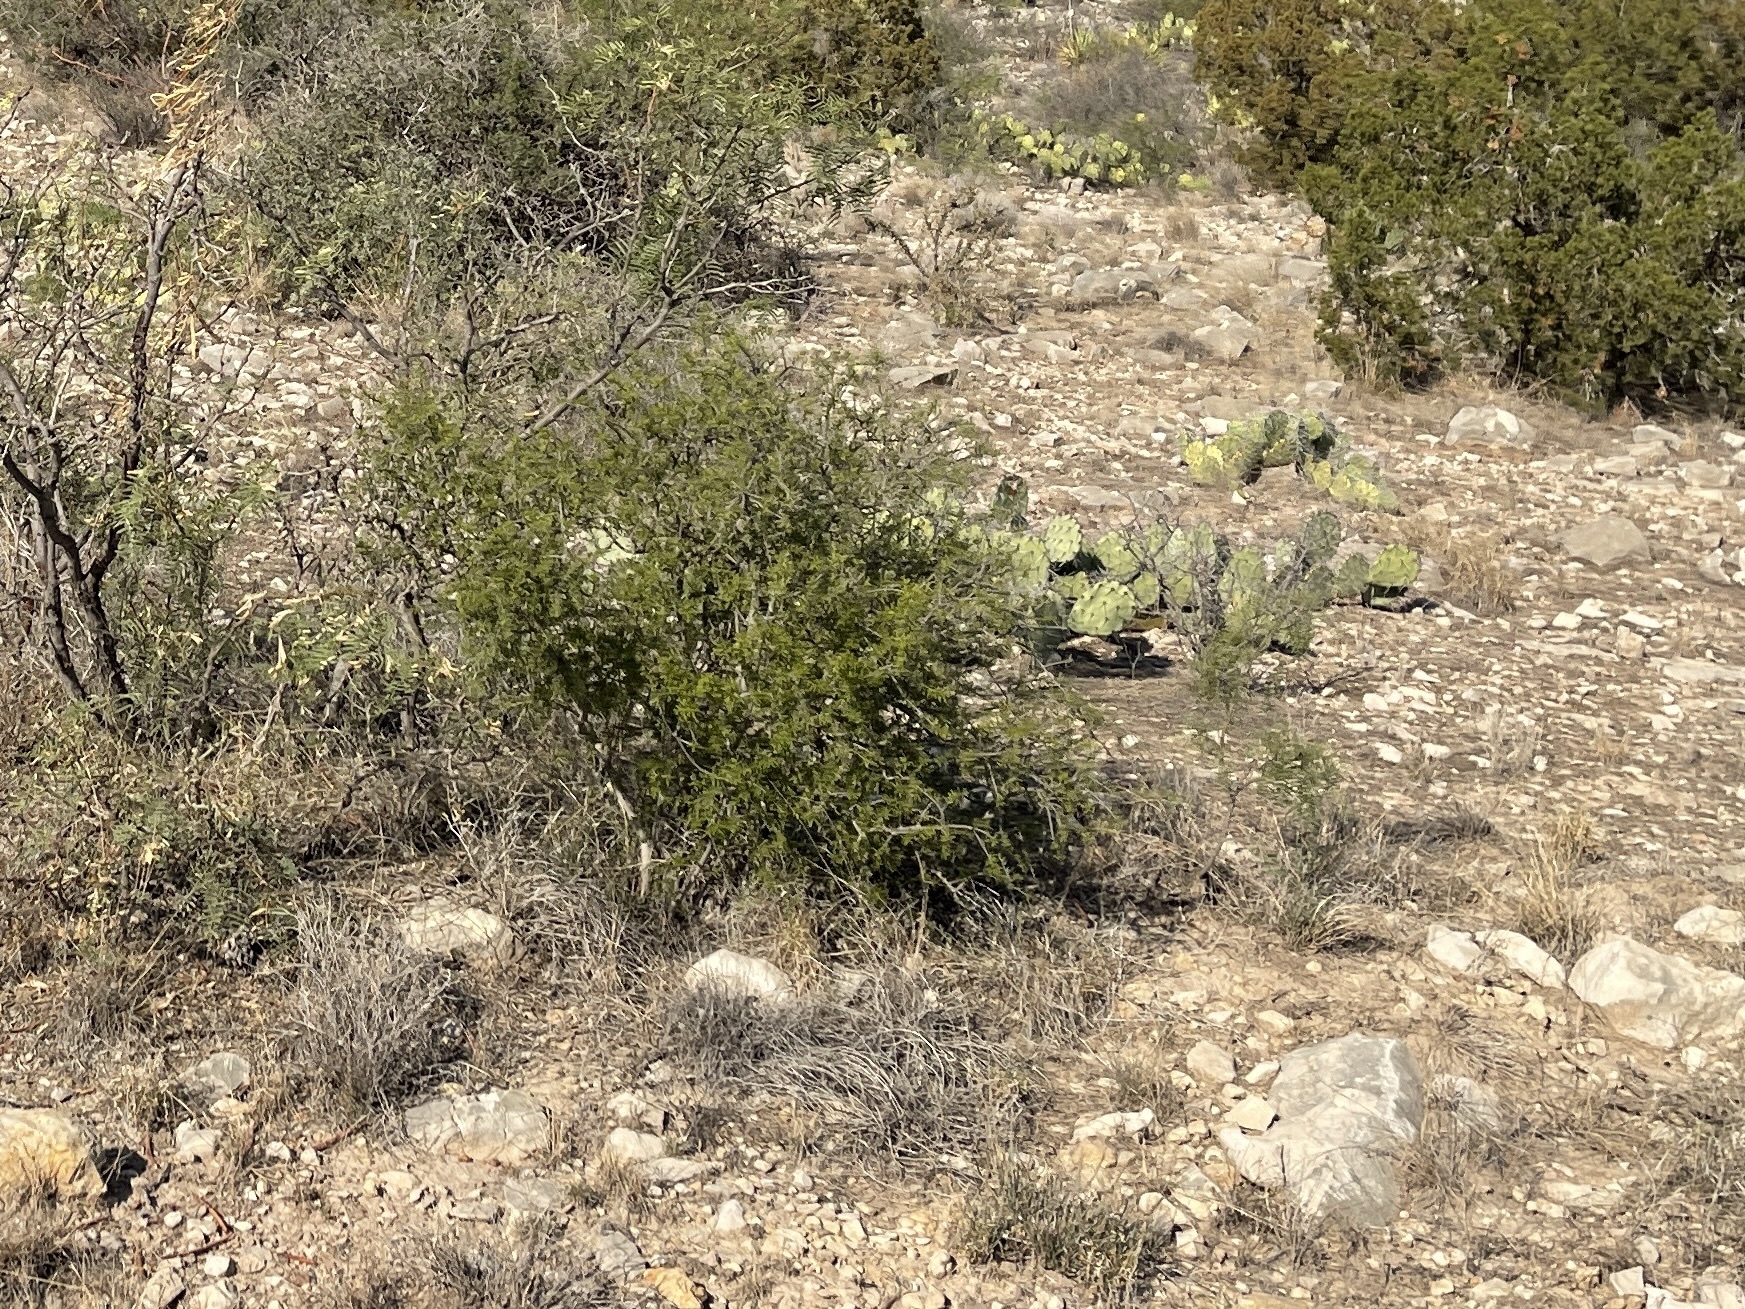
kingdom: Plantae
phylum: Tracheophyta
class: Magnoliopsida
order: Zygophyllales
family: Zygophyllaceae
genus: Larrea
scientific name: Larrea tridentata
